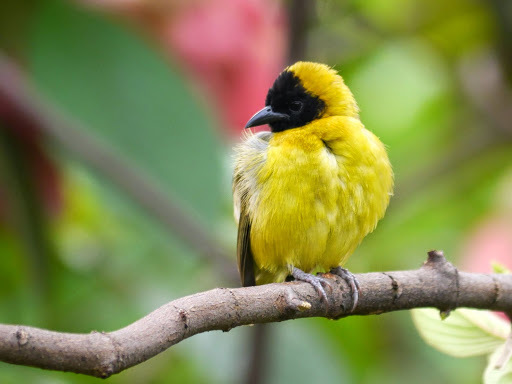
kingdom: Animalia
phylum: Chordata
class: Aves
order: Passeriformes
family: Ploceidae
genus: Ploceus
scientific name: Ploceus pelzelni
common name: Slender-billed weaver
